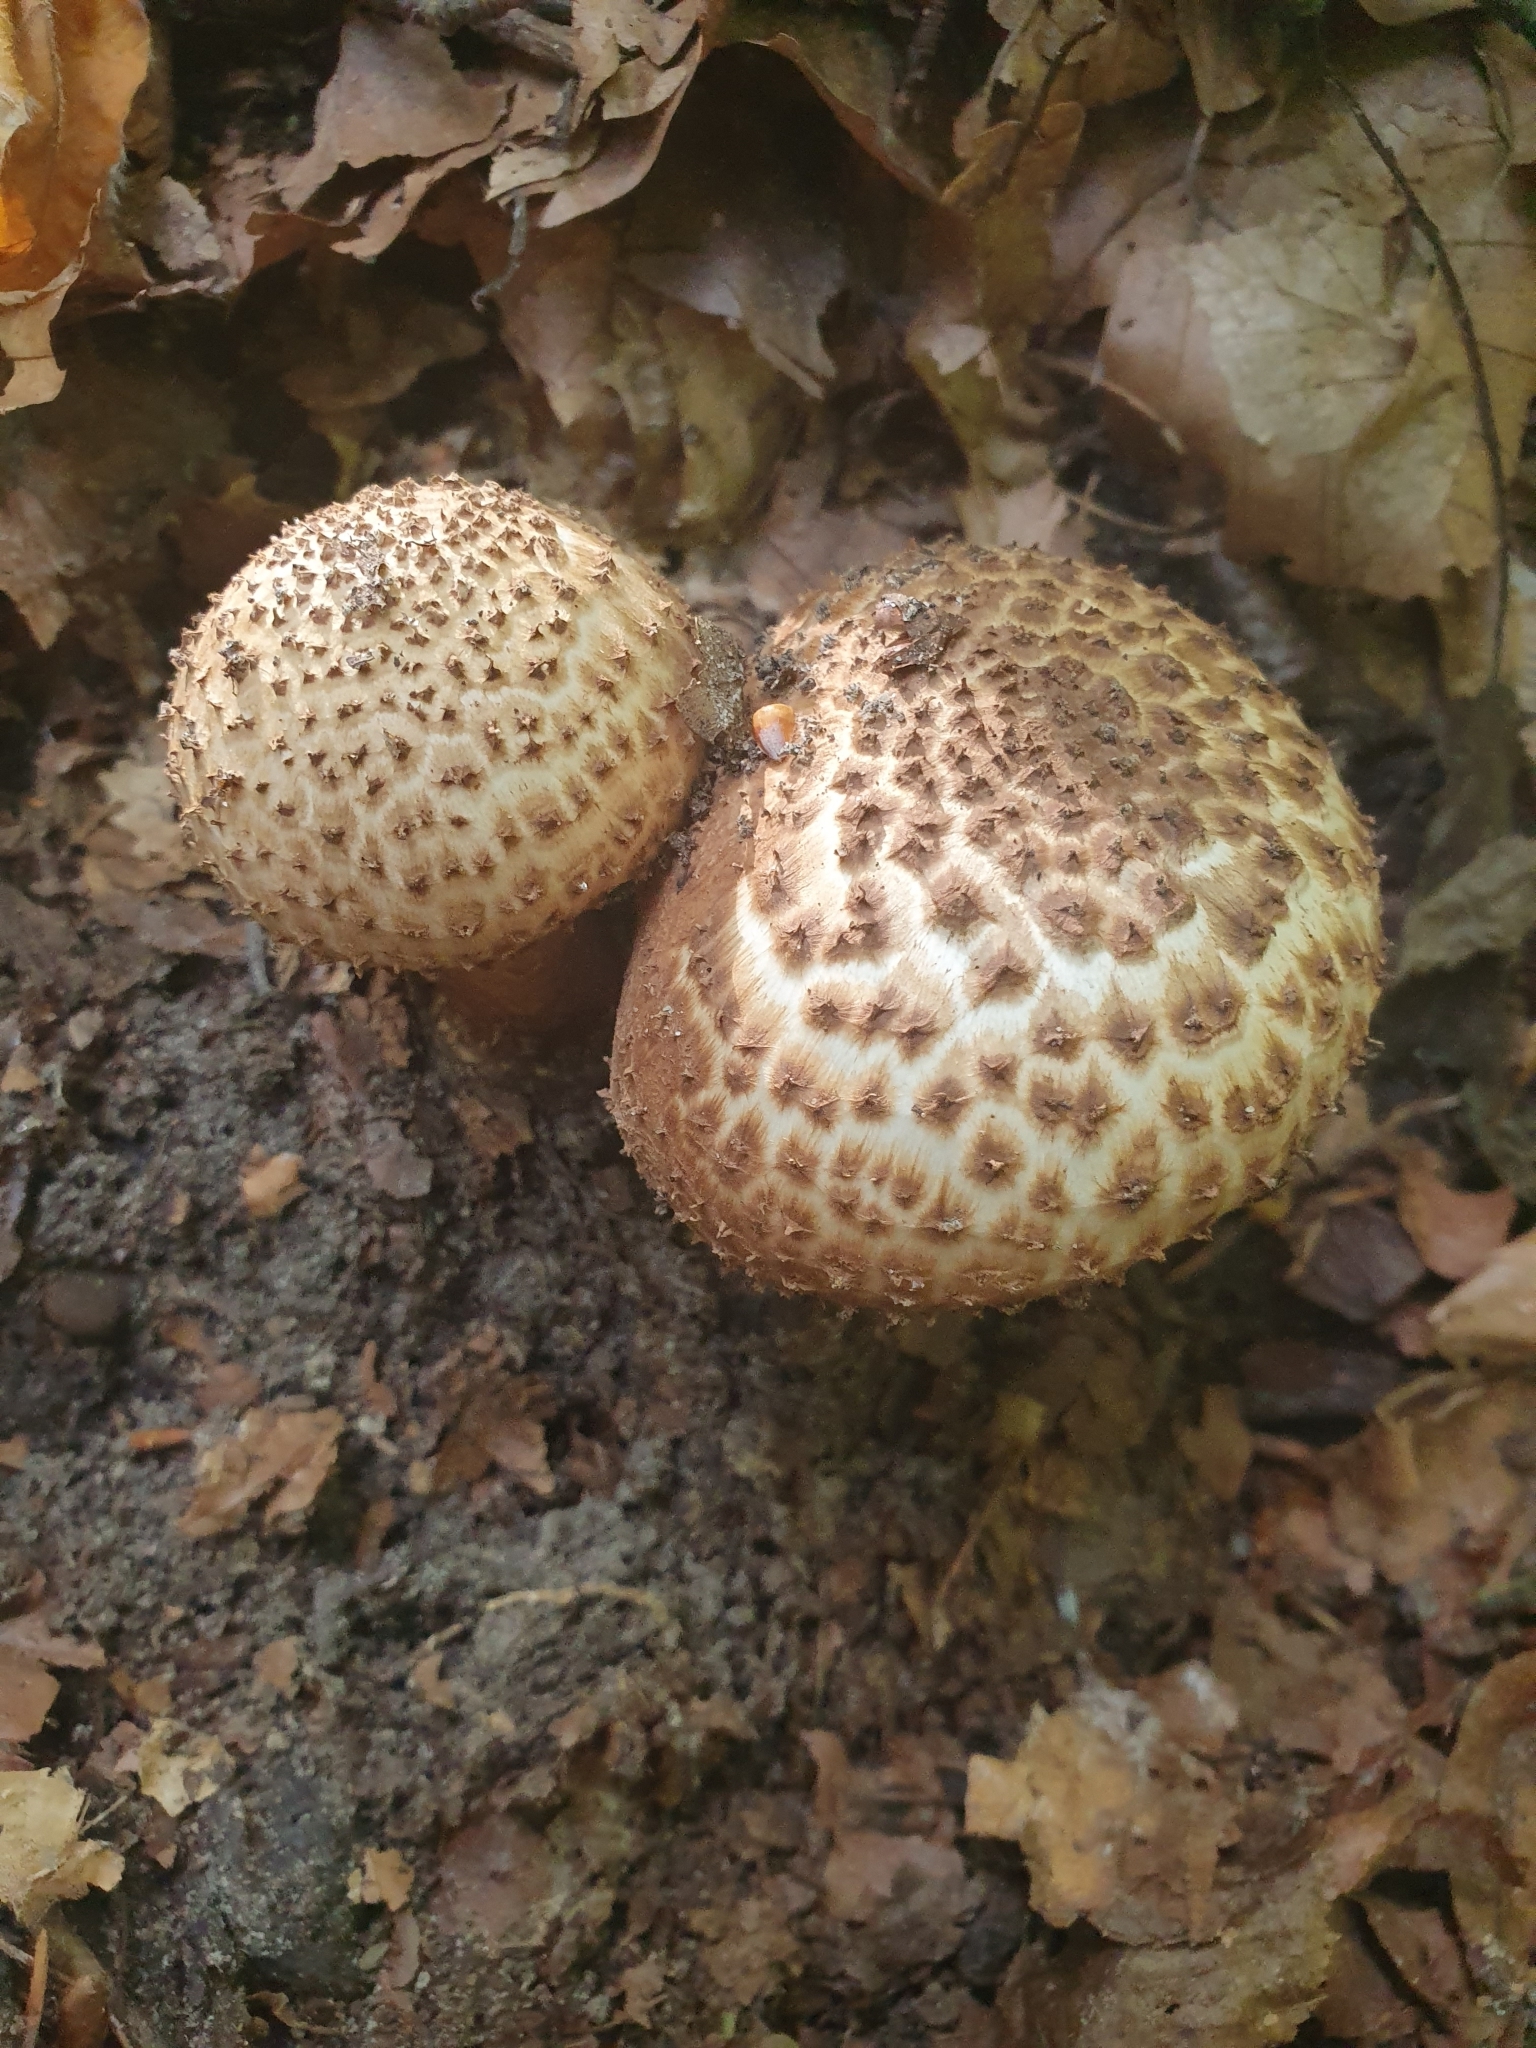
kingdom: Fungi
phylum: Basidiomycota
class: Agaricomycetes
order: Agaricales
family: Agaricaceae
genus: Echinoderma
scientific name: Echinoderma asperum
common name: Freckled dapperling
